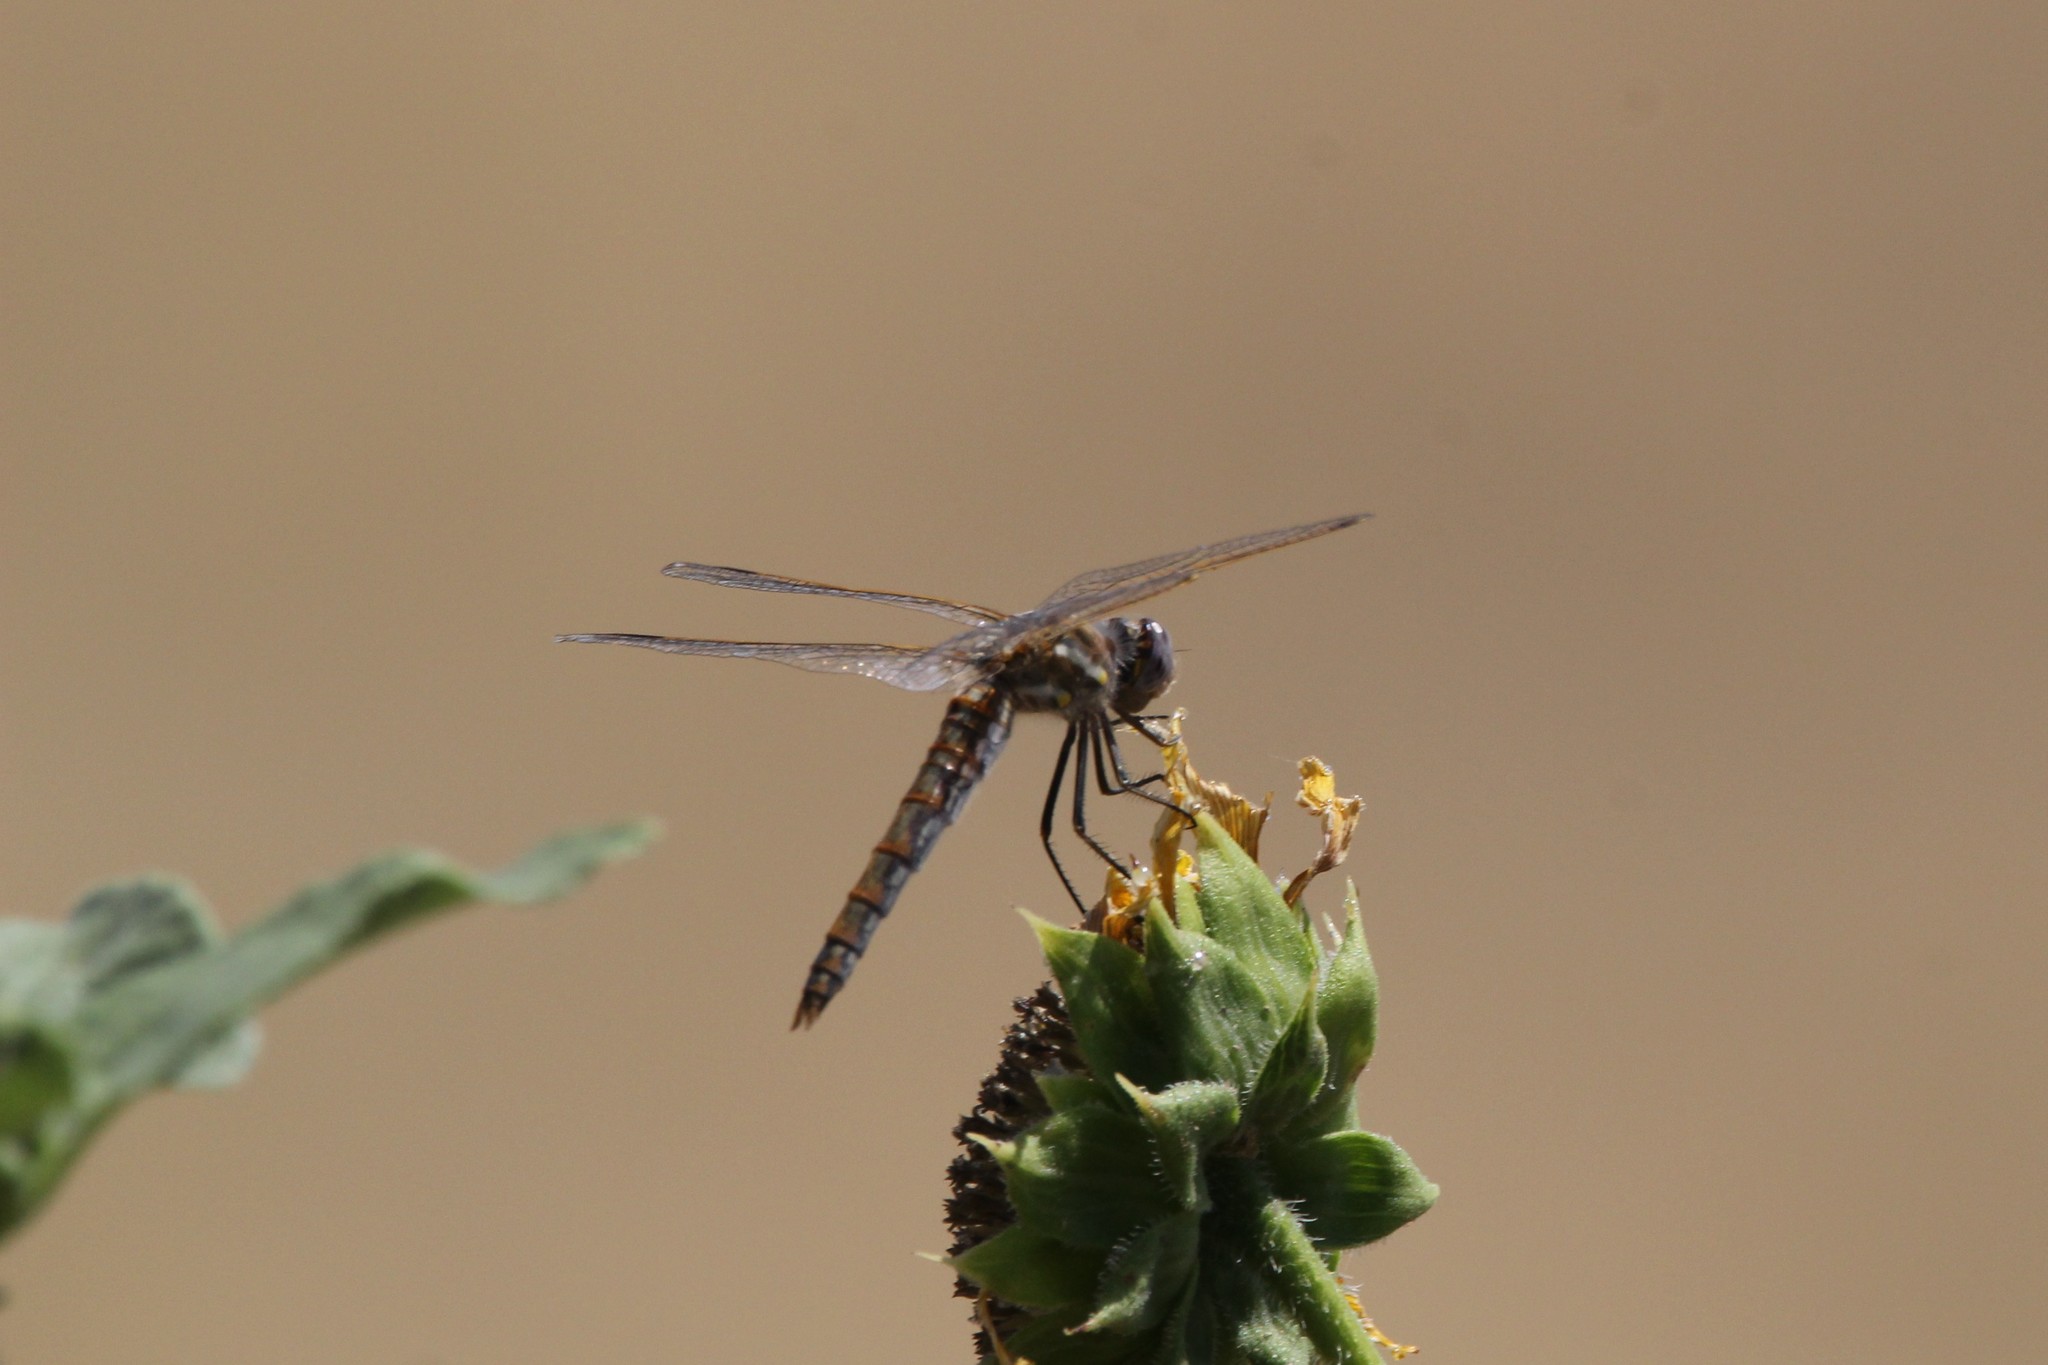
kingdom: Animalia
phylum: Arthropoda
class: Insecta
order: Odonata
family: Libellulidae
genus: Sympetrum
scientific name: Sympetrum corruptum
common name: Variegated meadowhawk
